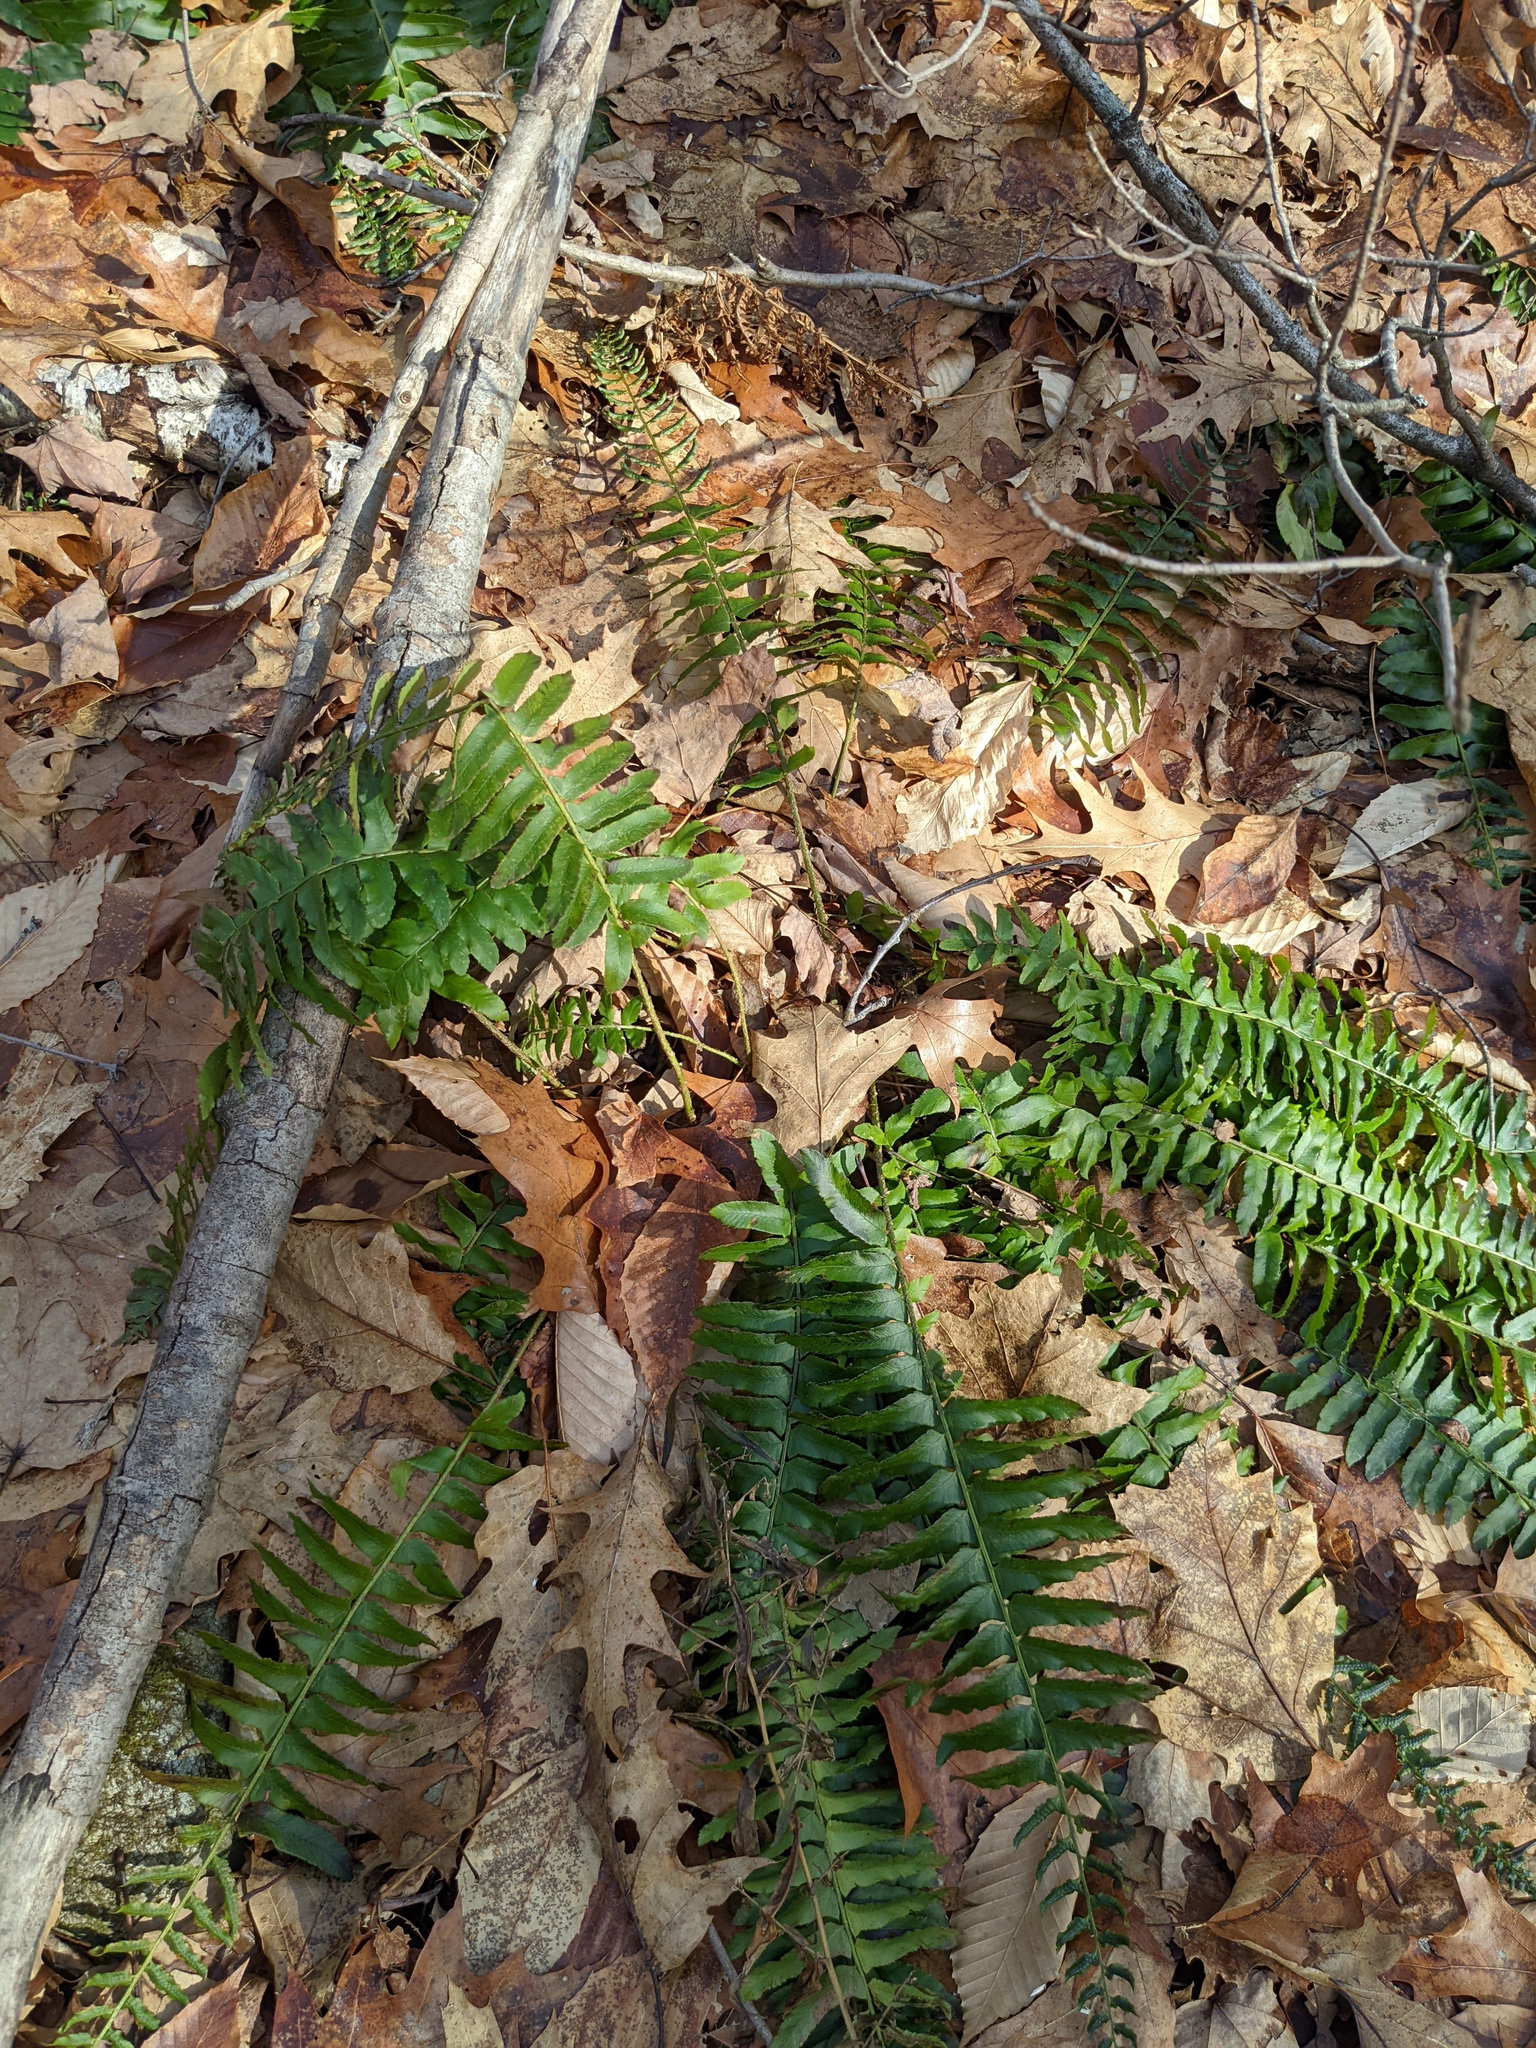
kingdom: Plantae
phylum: Tracheophyta
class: Polypodiopsida
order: Polypodiales
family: Dryopteridaceae
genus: Polystichum
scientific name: Polystichum acrostichoides
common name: Christmas fern
